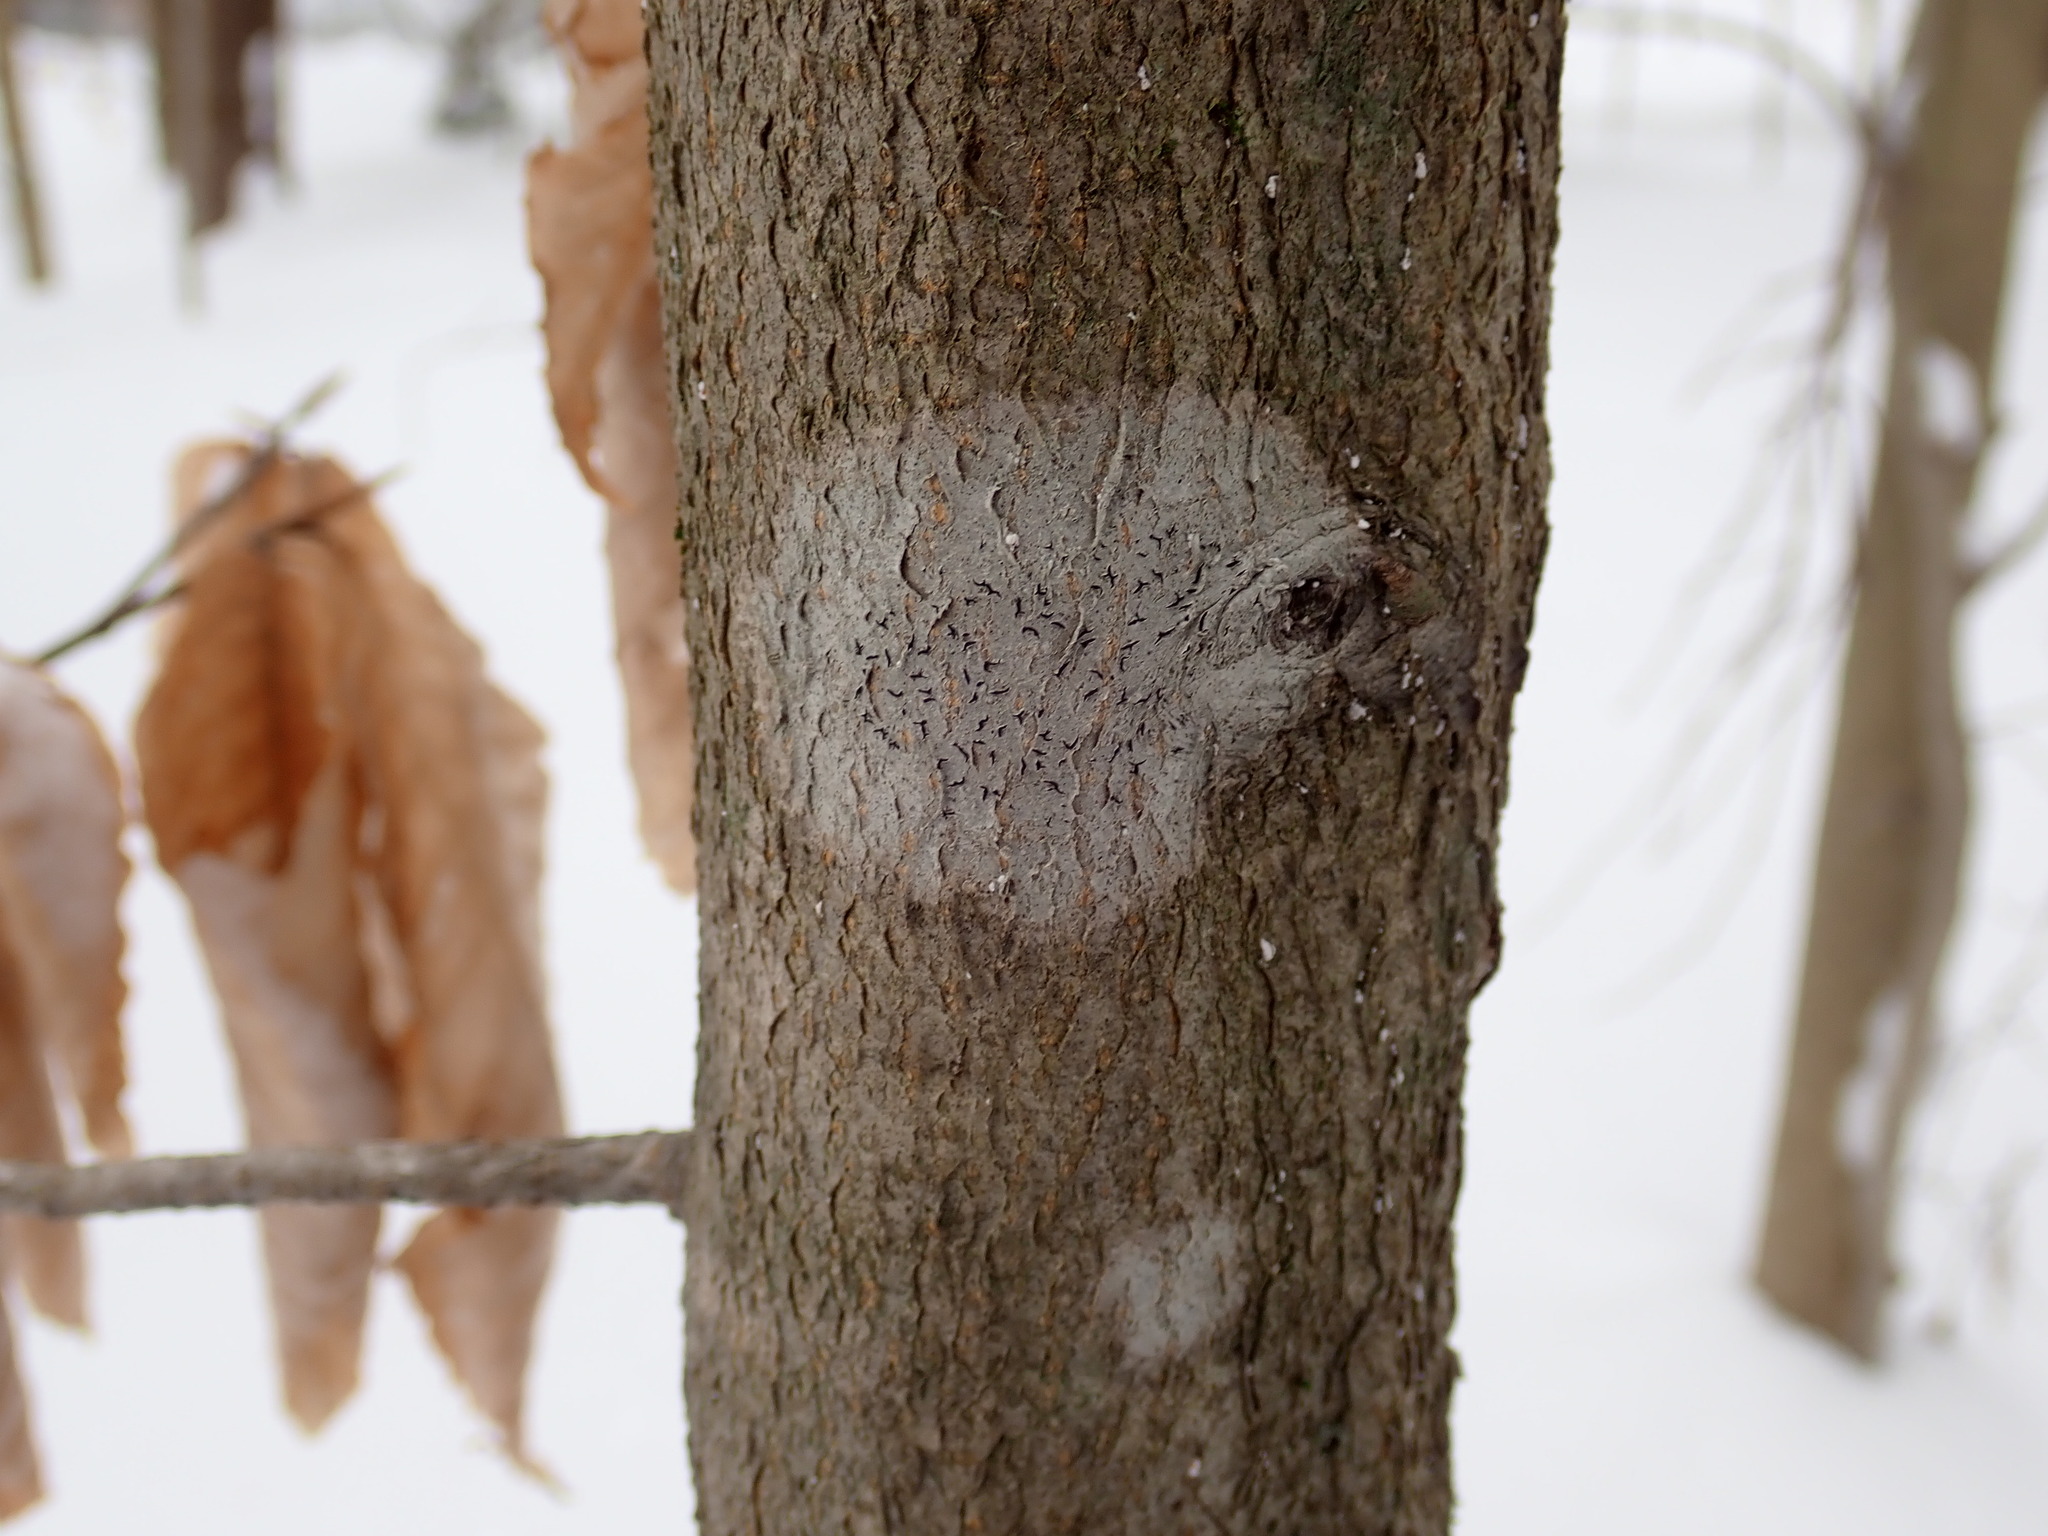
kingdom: Fungi
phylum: Ascomycota
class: Lecanoromycetes
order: Ostropales
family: Graphidaceae
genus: Graphis
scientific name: Graphis scripta
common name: Script lichen
